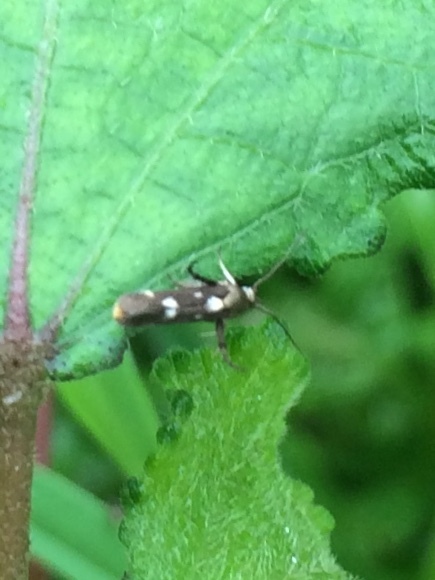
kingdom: Animalia
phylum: Arthropoda
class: Insecta
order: Lepidoptera
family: Scythrididae
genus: Eretmocera
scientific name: Eretmocera impactella
